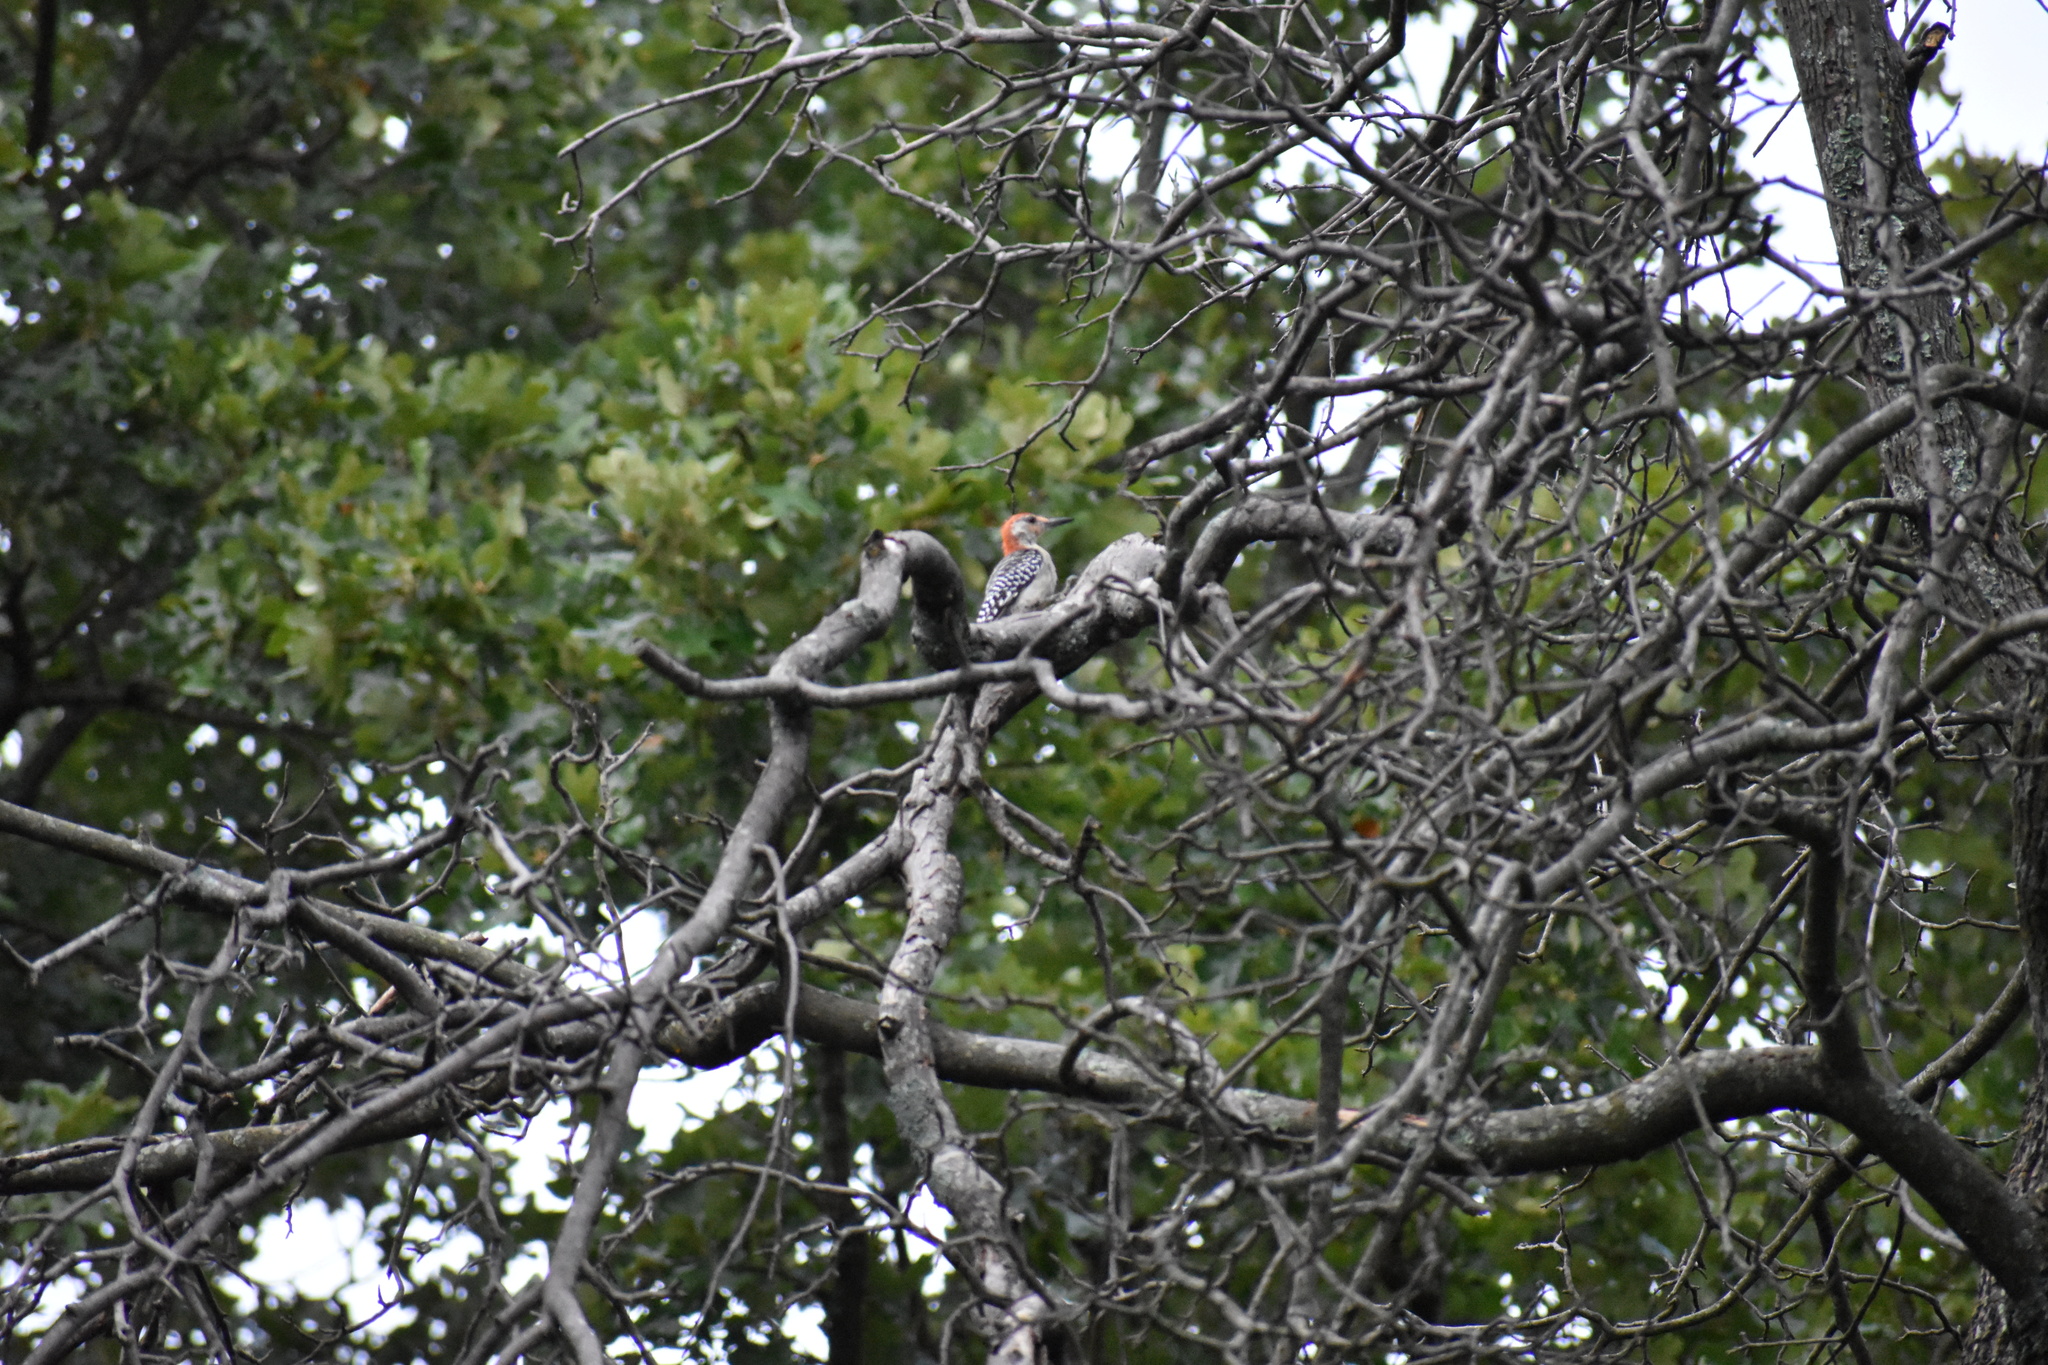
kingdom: Animalia
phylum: Chordata
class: Aves
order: Piciformes
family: Picidae
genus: Melanerpes
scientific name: Melanerpes carolinus
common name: Red-bellied woodpecker
